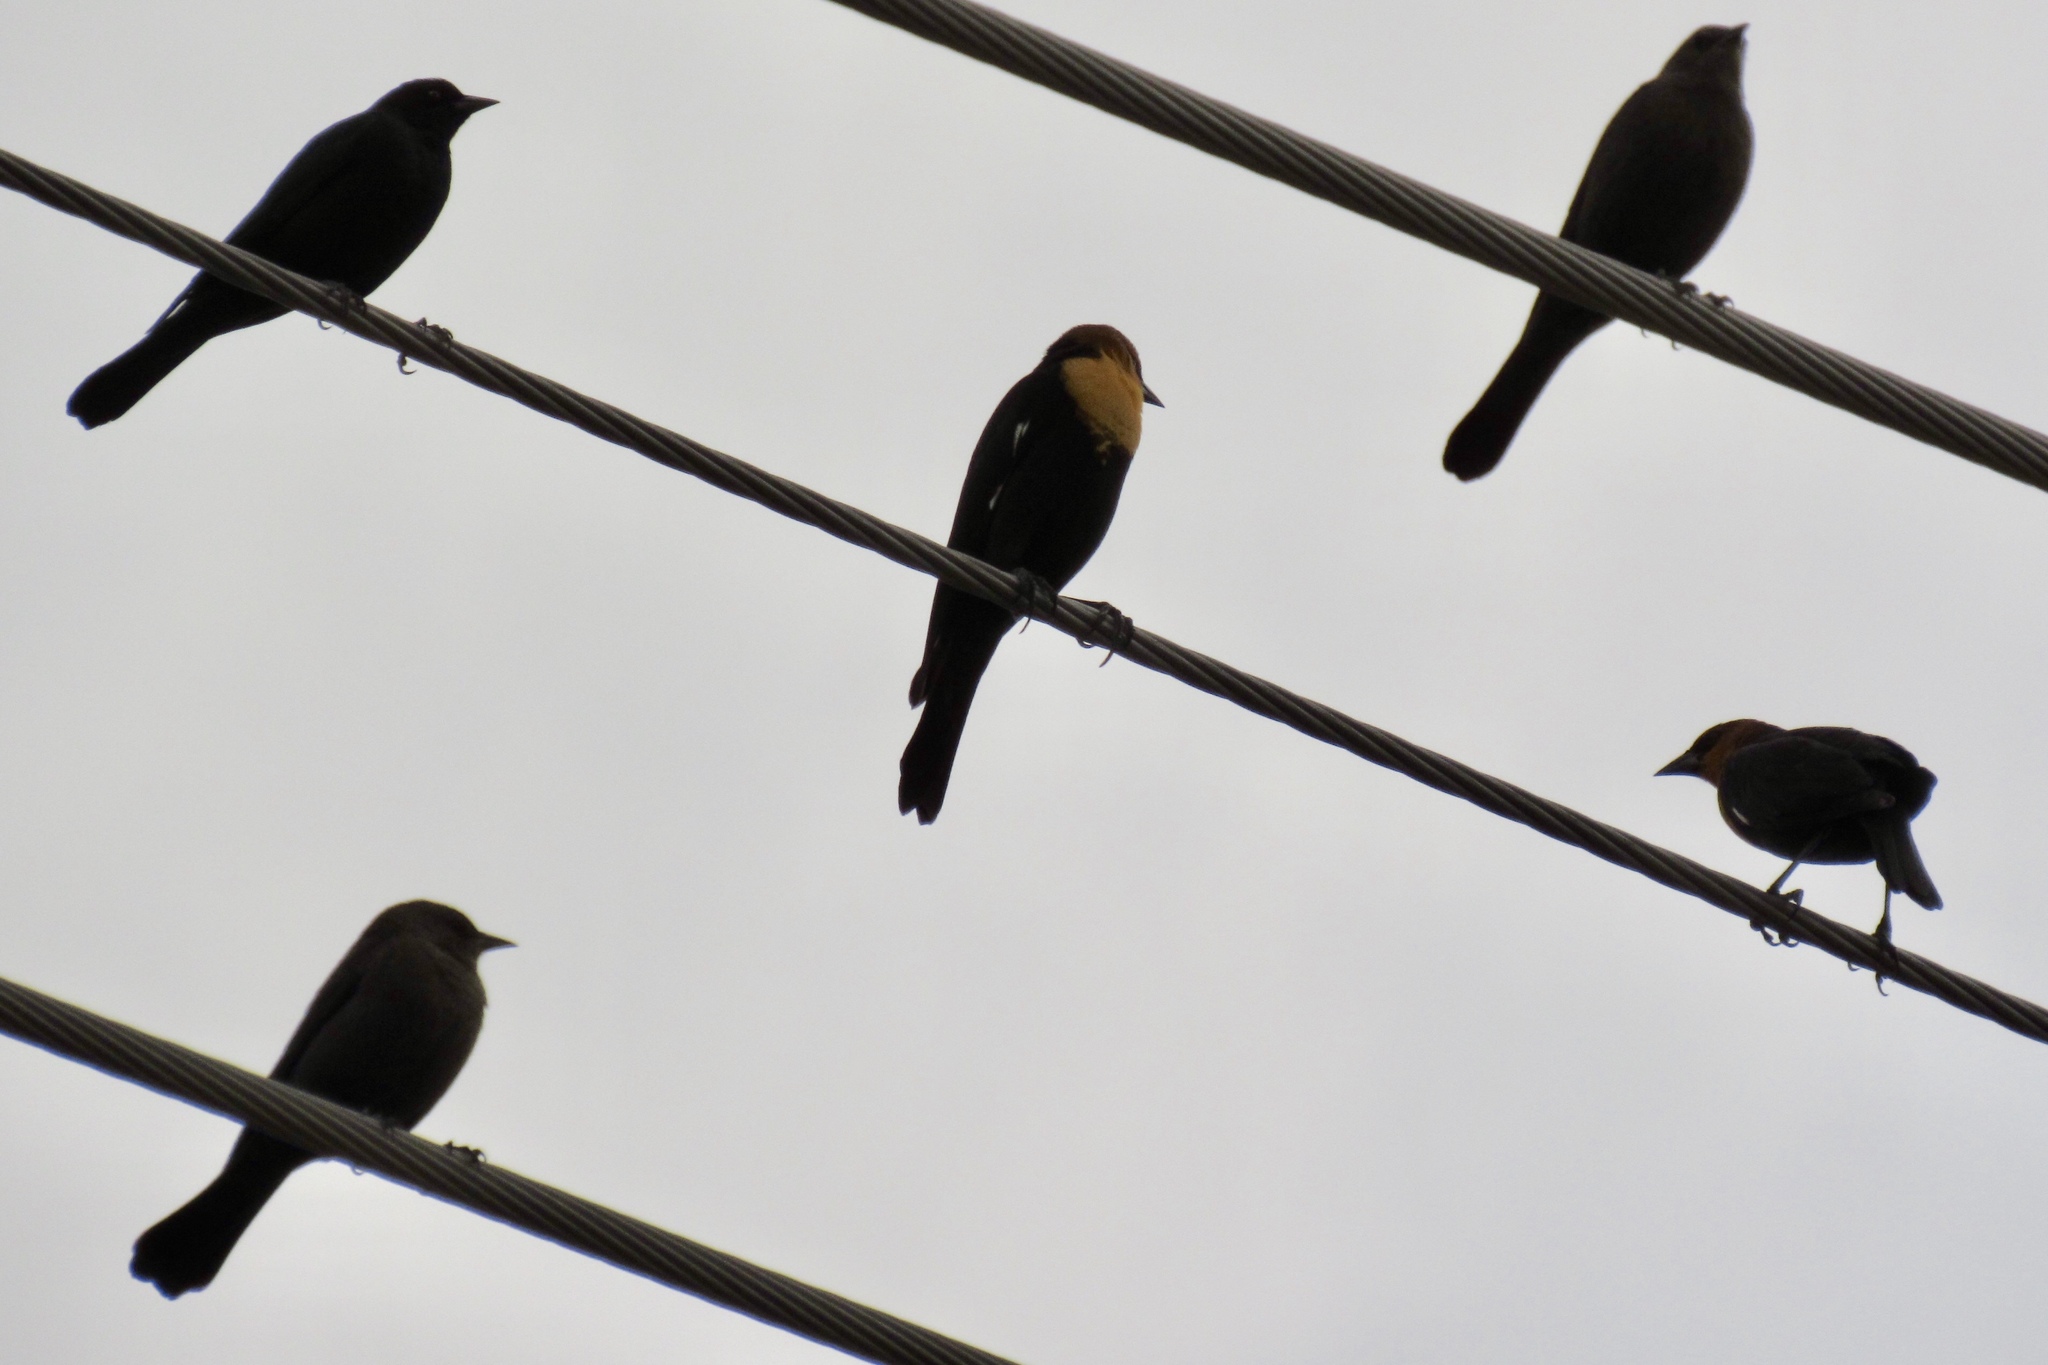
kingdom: Animalia
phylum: Chordata
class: Aves
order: Passeriformes
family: Icteridae
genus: Xanthocephalus
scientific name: Xanthocephalus xanthocephalus
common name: Yellow-headed blackbird
